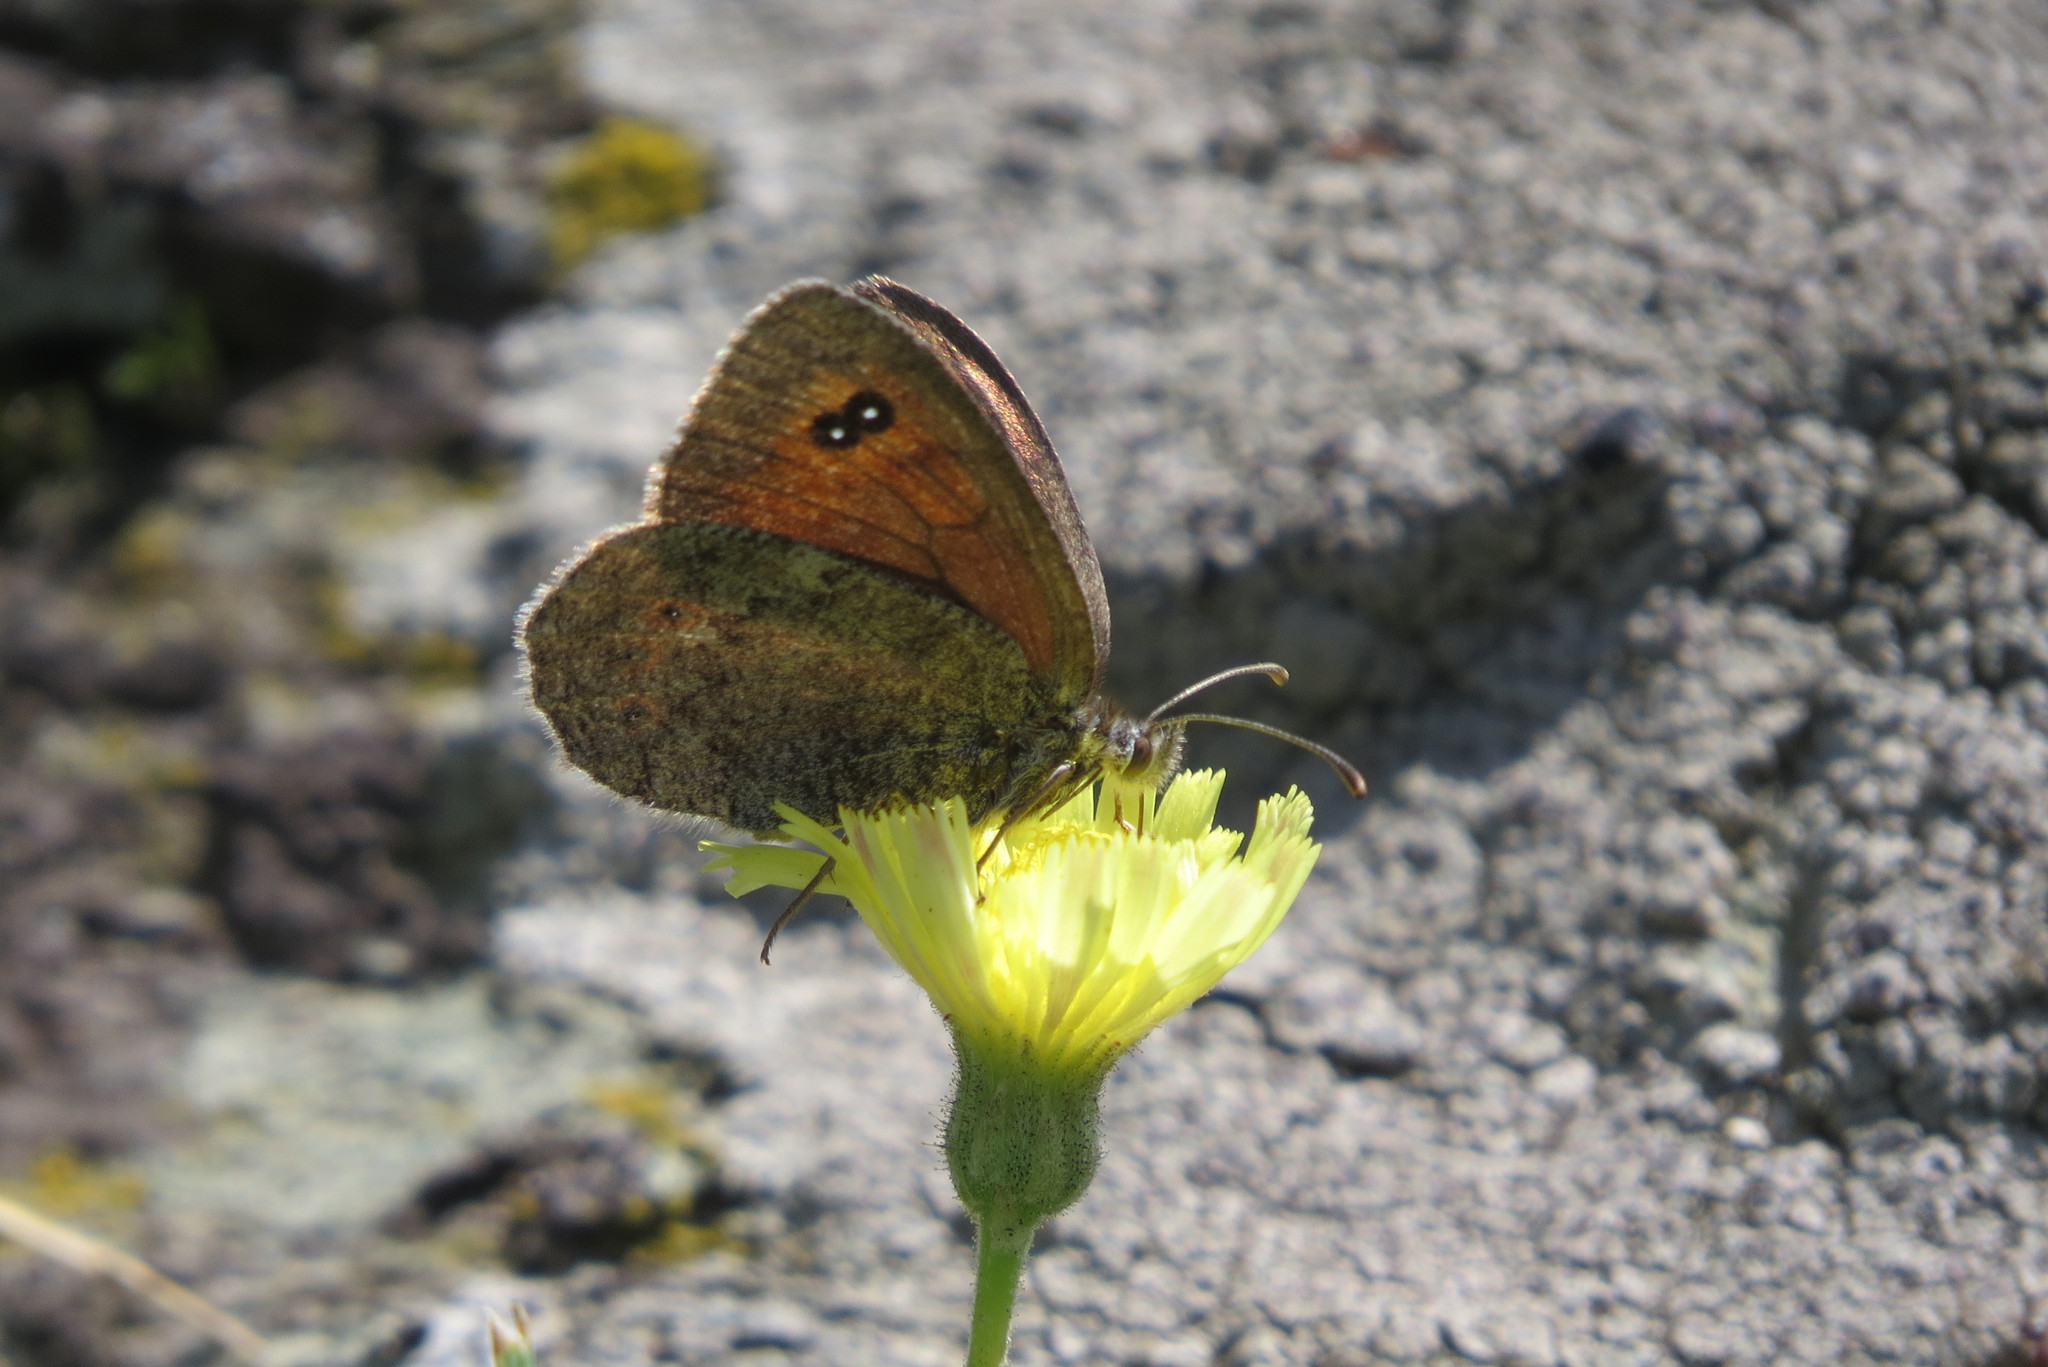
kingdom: Animalia
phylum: Arthropoda
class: Insecta
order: Lepidoptera
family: Nymphalidae
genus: Erebia
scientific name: Erebia cassioides
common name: Common brassy ringlet
